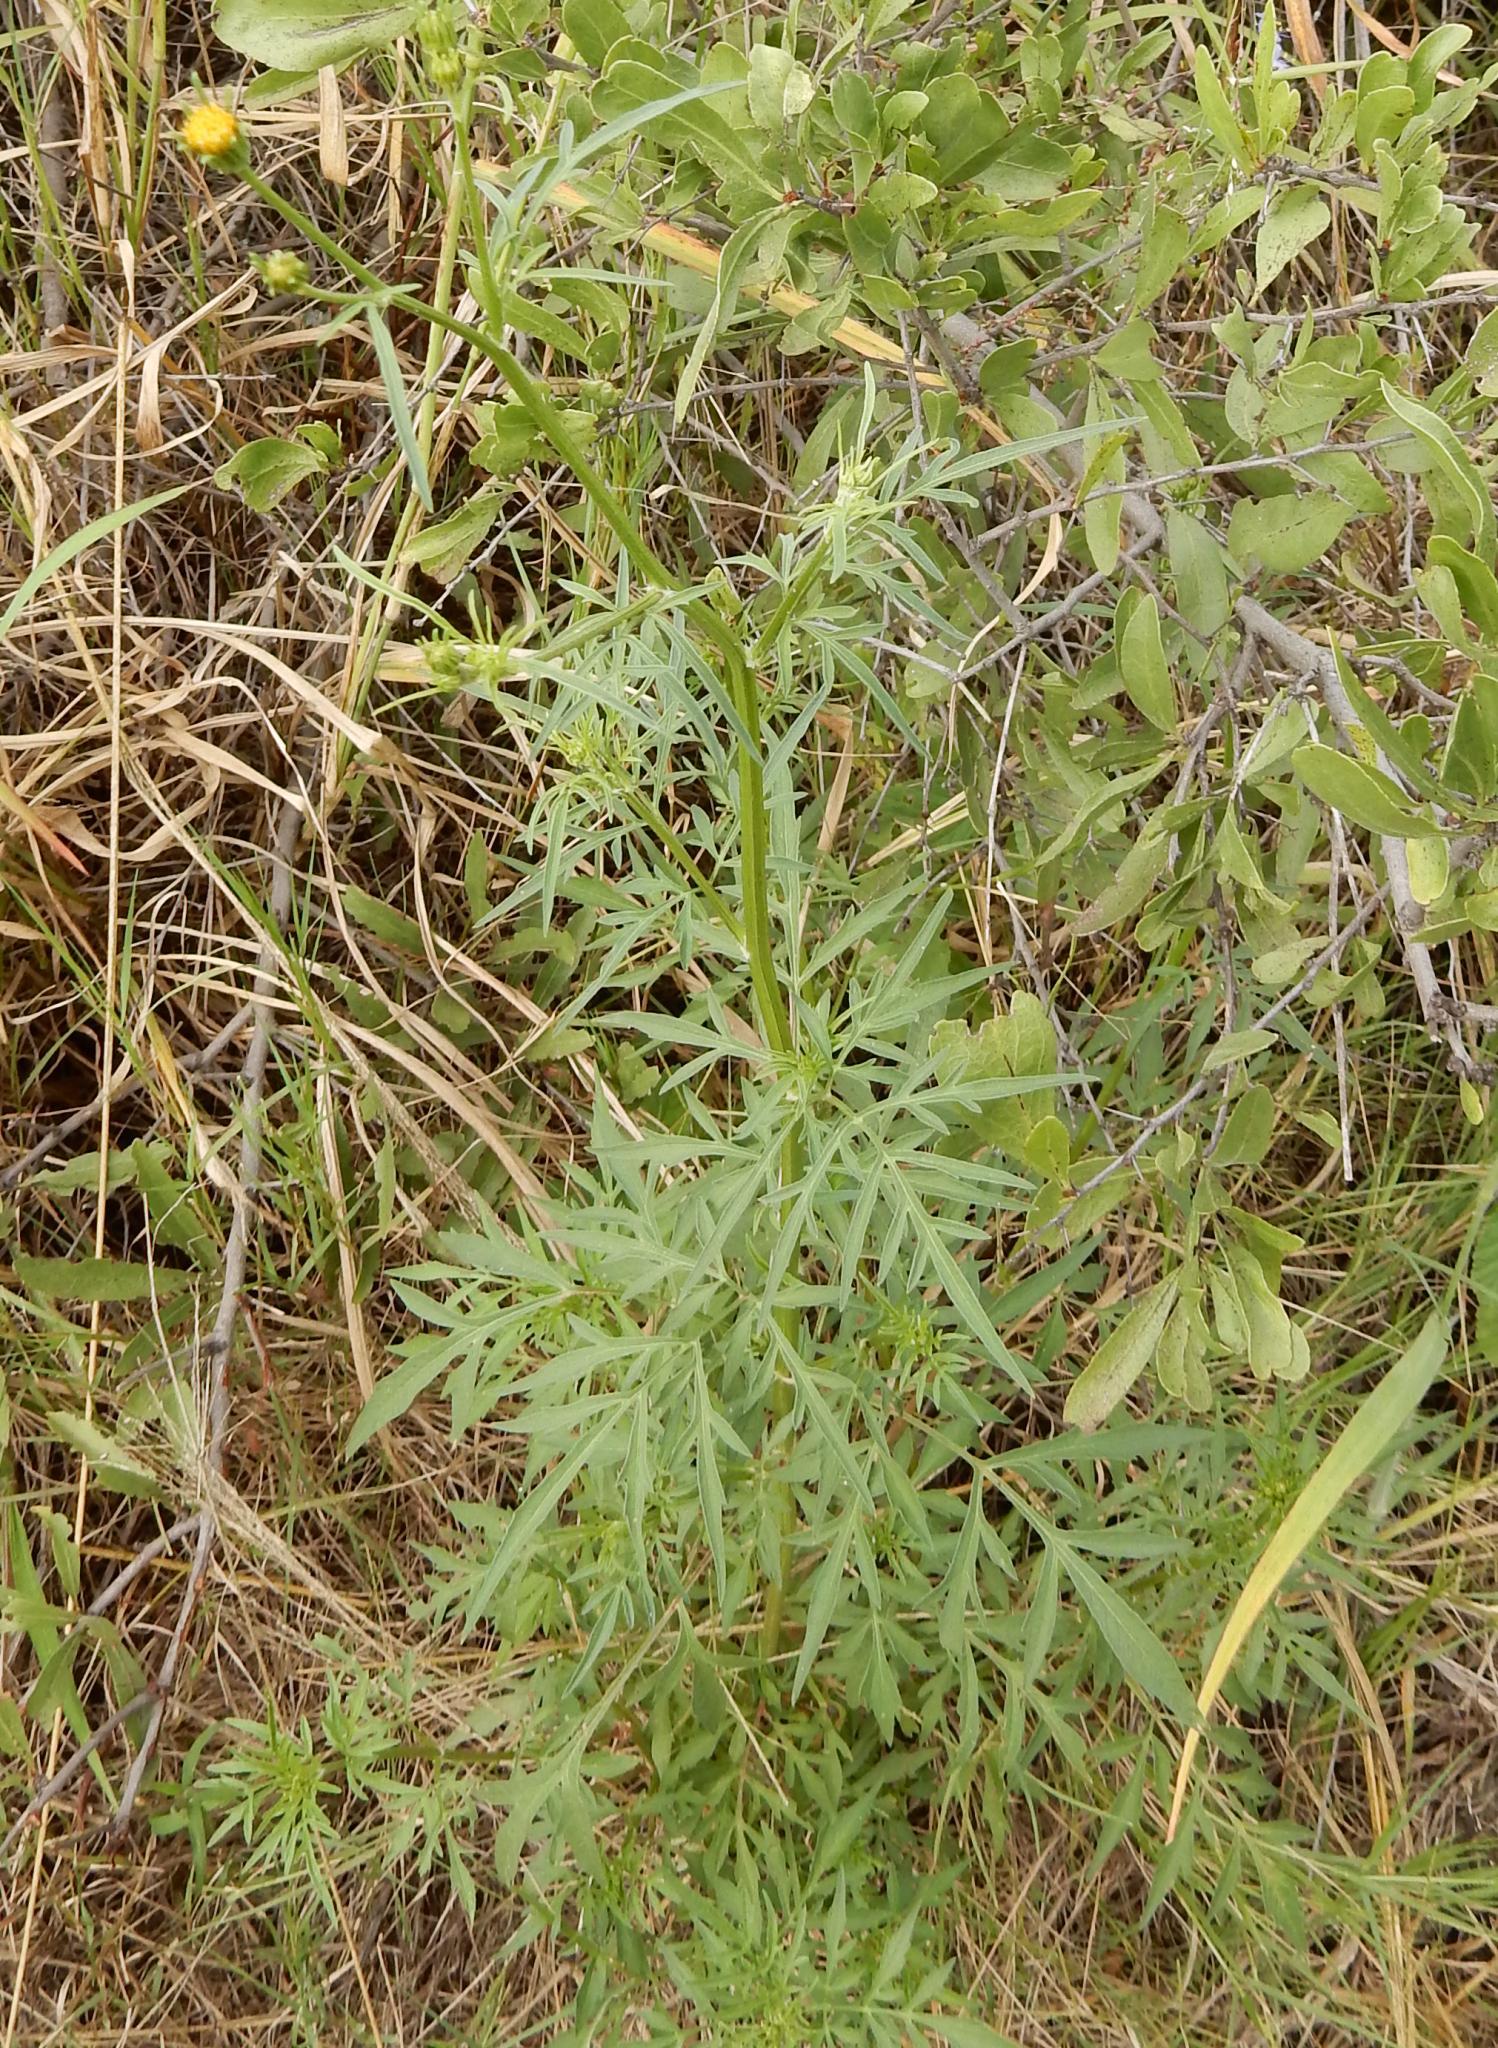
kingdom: Plantae
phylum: Tracheophyta
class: Magnoliopsida
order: Asterales
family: Asteraceae
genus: Bidens
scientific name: Bidens bipinnata
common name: Spanish-needles
